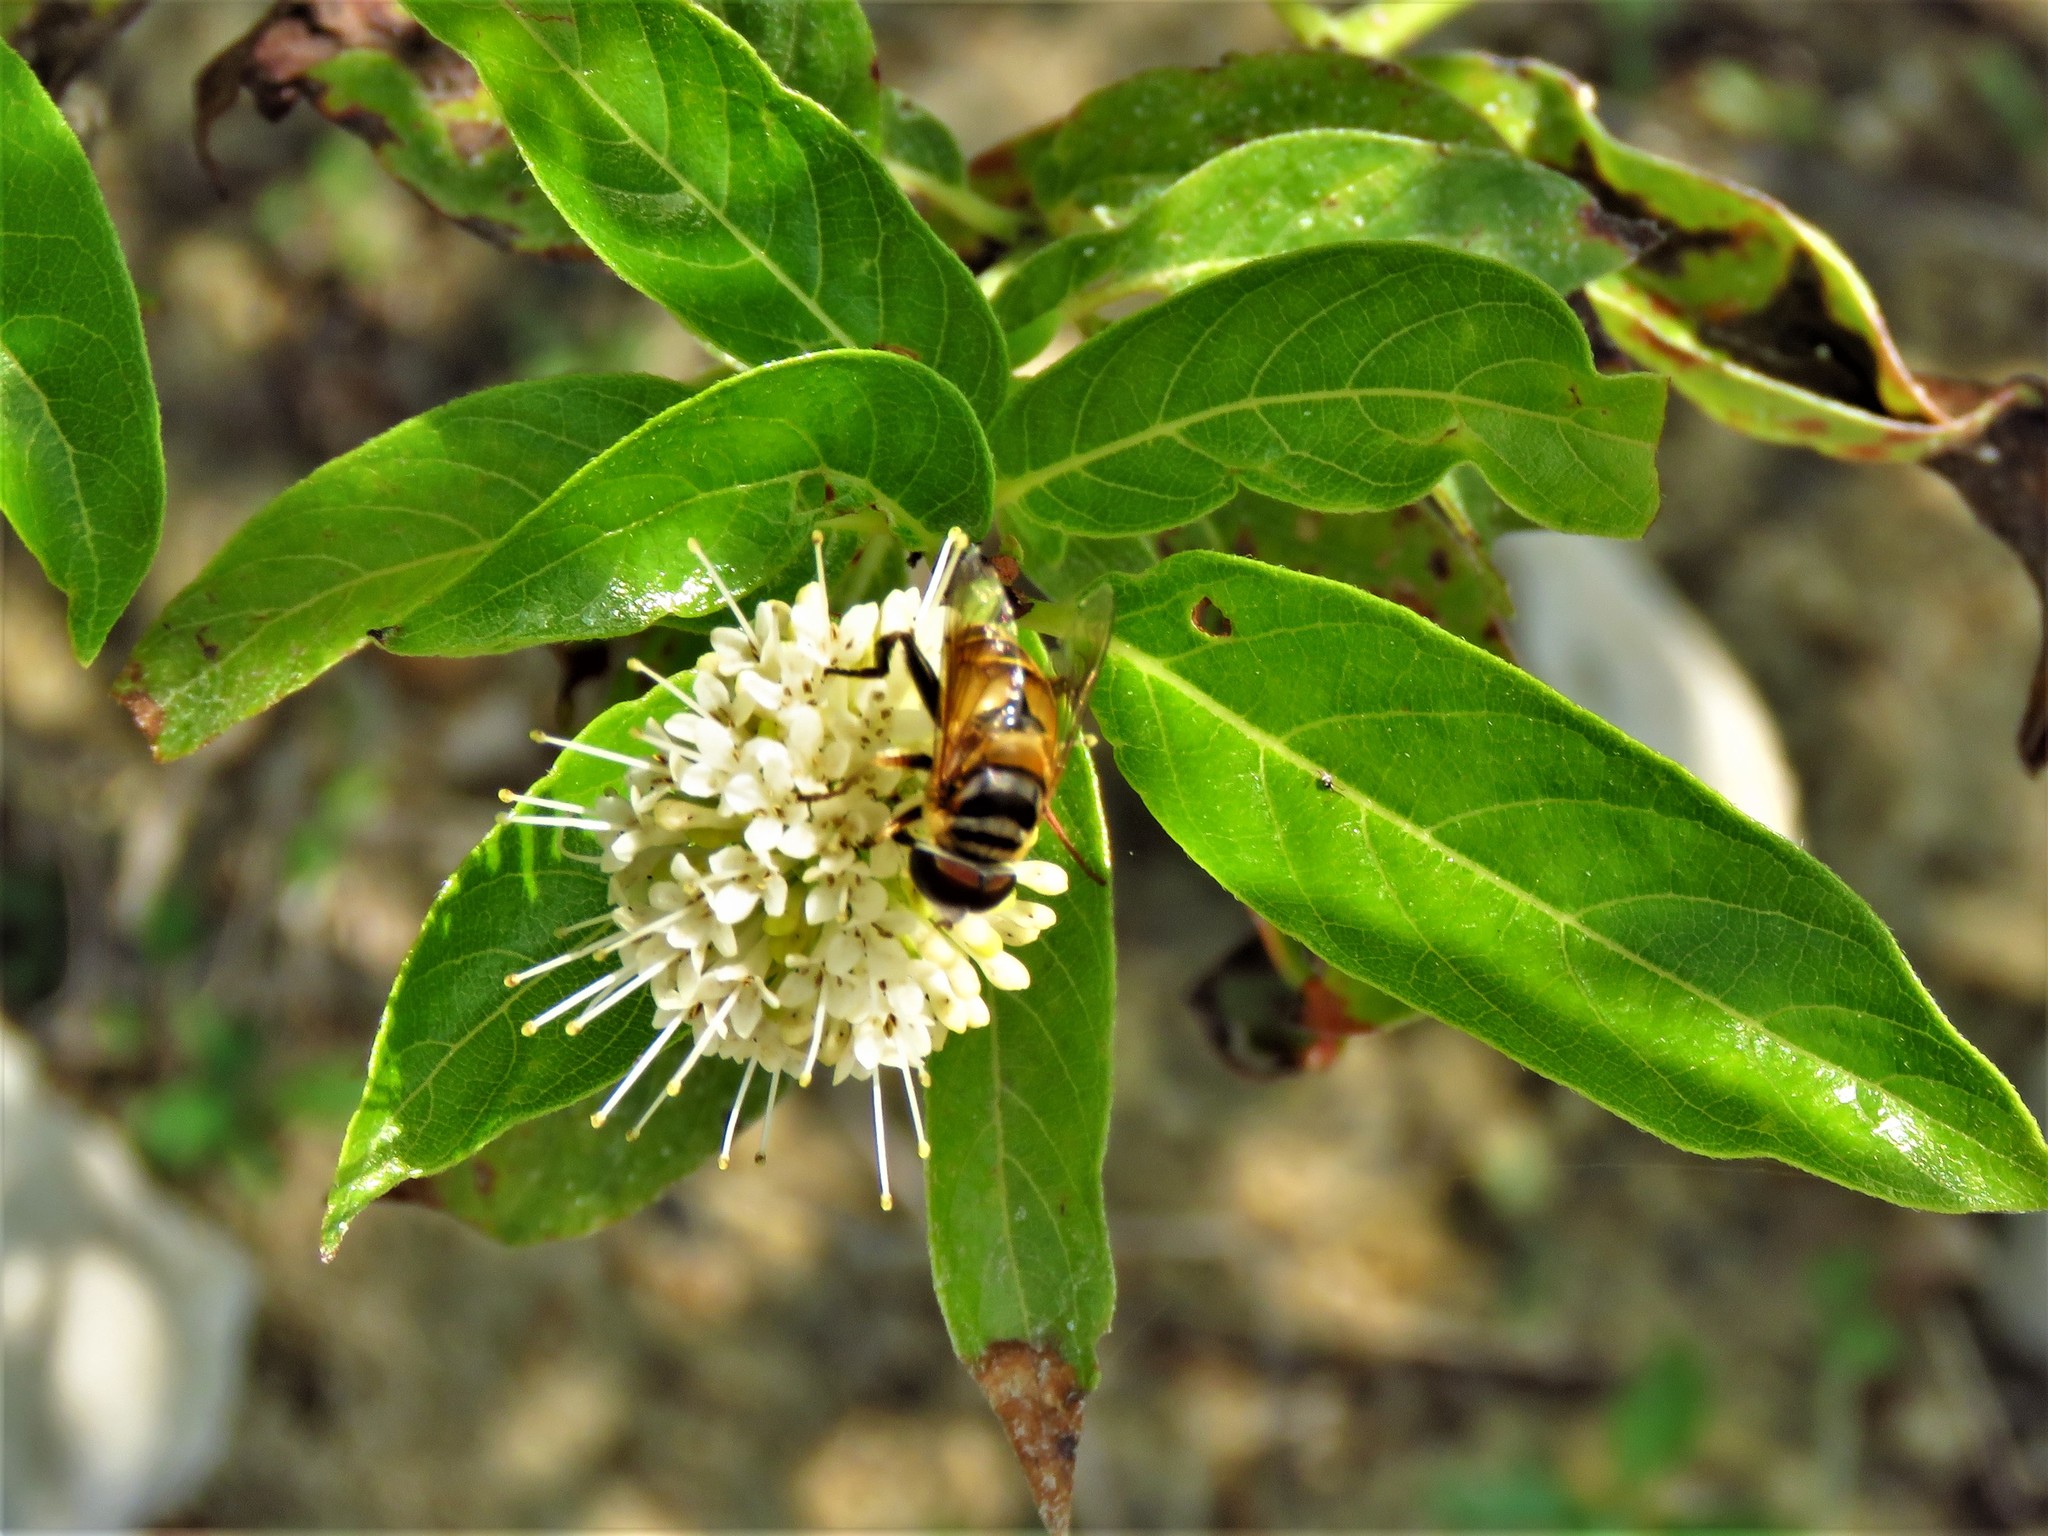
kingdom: Animalia
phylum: Arthropoda
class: Insecta
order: Diptera
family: Syrphidae
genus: Palpada
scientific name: Palpada vinetorum
